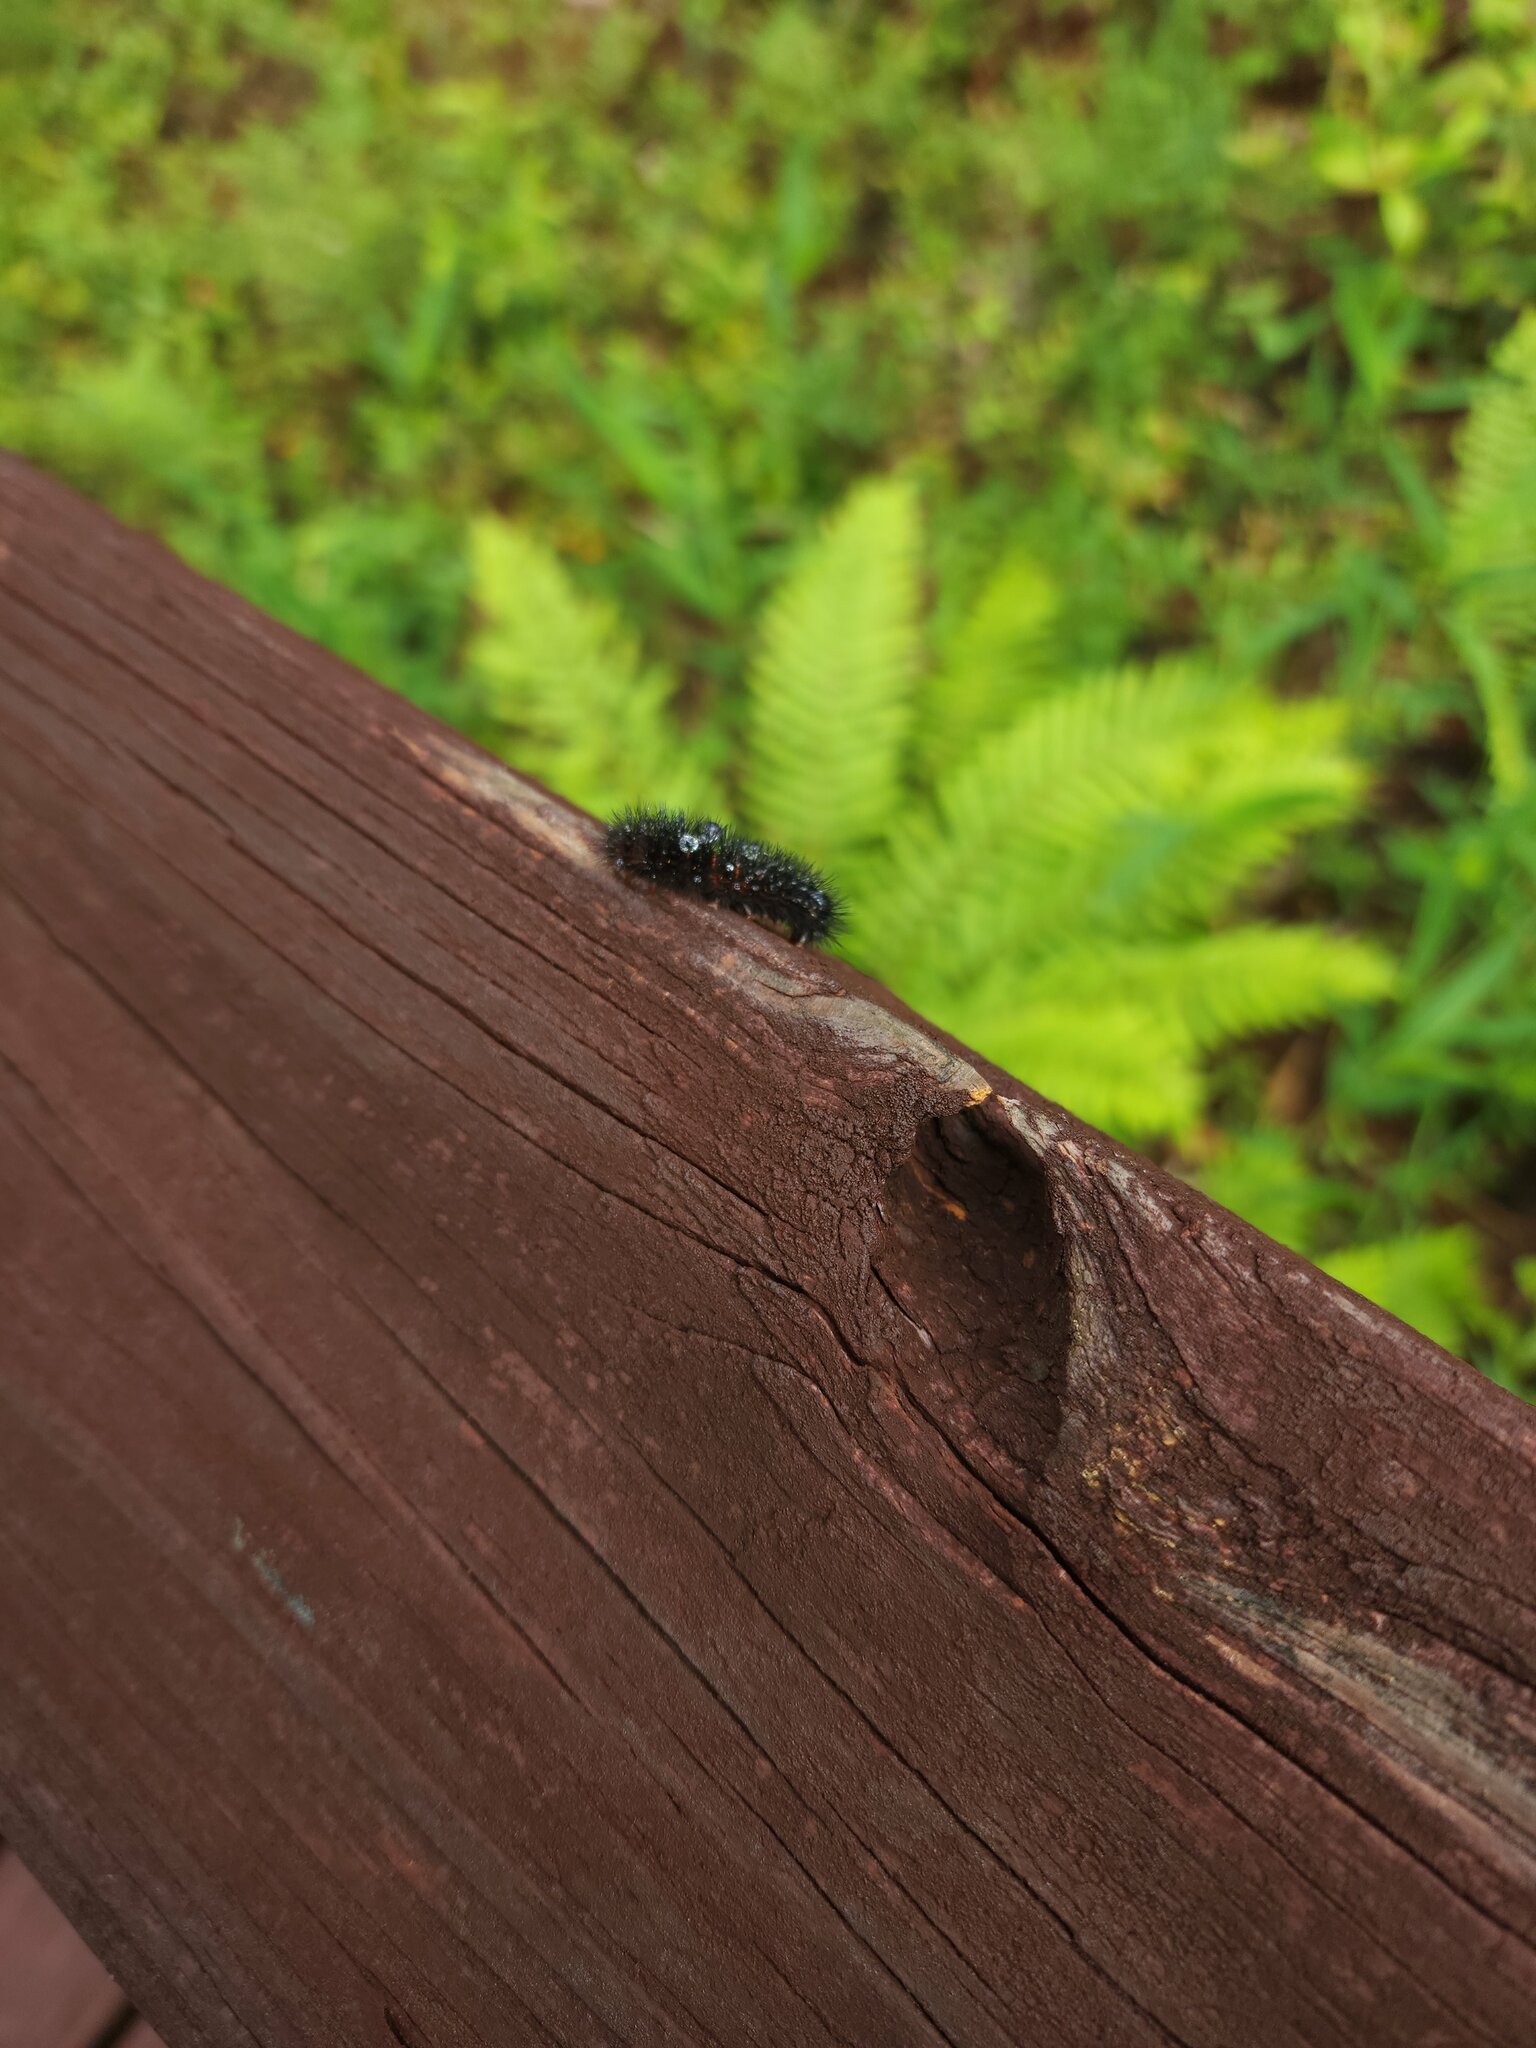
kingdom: Animalia
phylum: Arthropoda
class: Insecta
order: Lepidoptera
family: Erebidae
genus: Hypercompe
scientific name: Hypercompe scribonia
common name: Giant leopard moth
